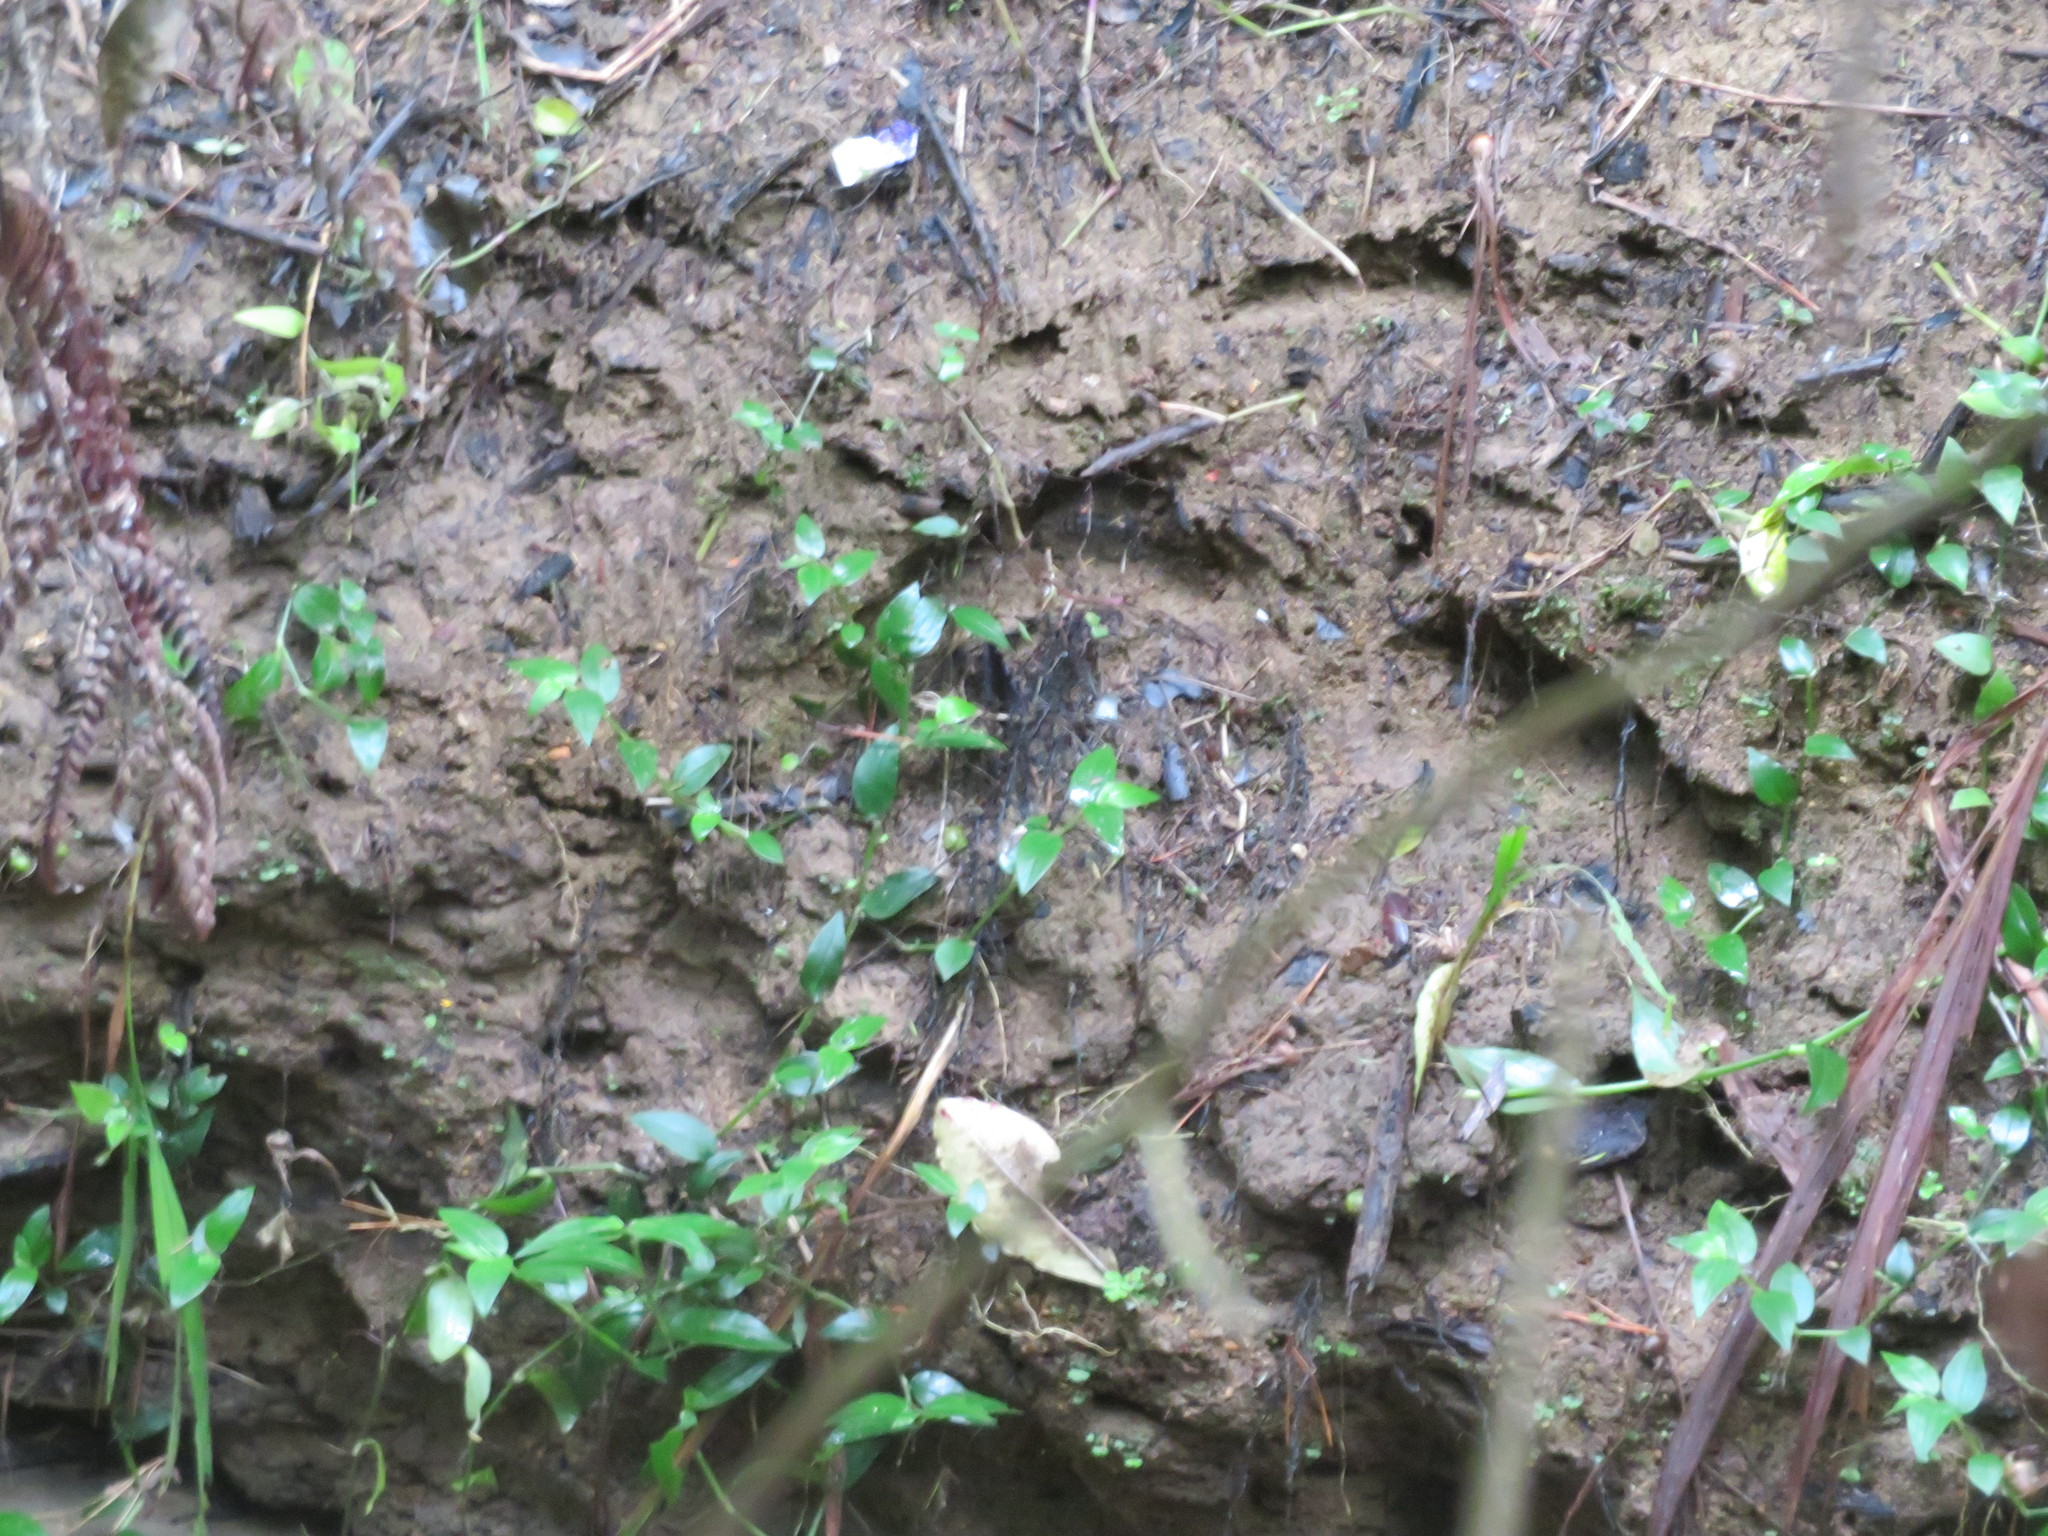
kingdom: Plantae
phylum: Tracheophyta
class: Liliopsida
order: Commelinales
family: Commelinaceae
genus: Tradescantia
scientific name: Tradescantia fluminensis
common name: Wandering-jew
